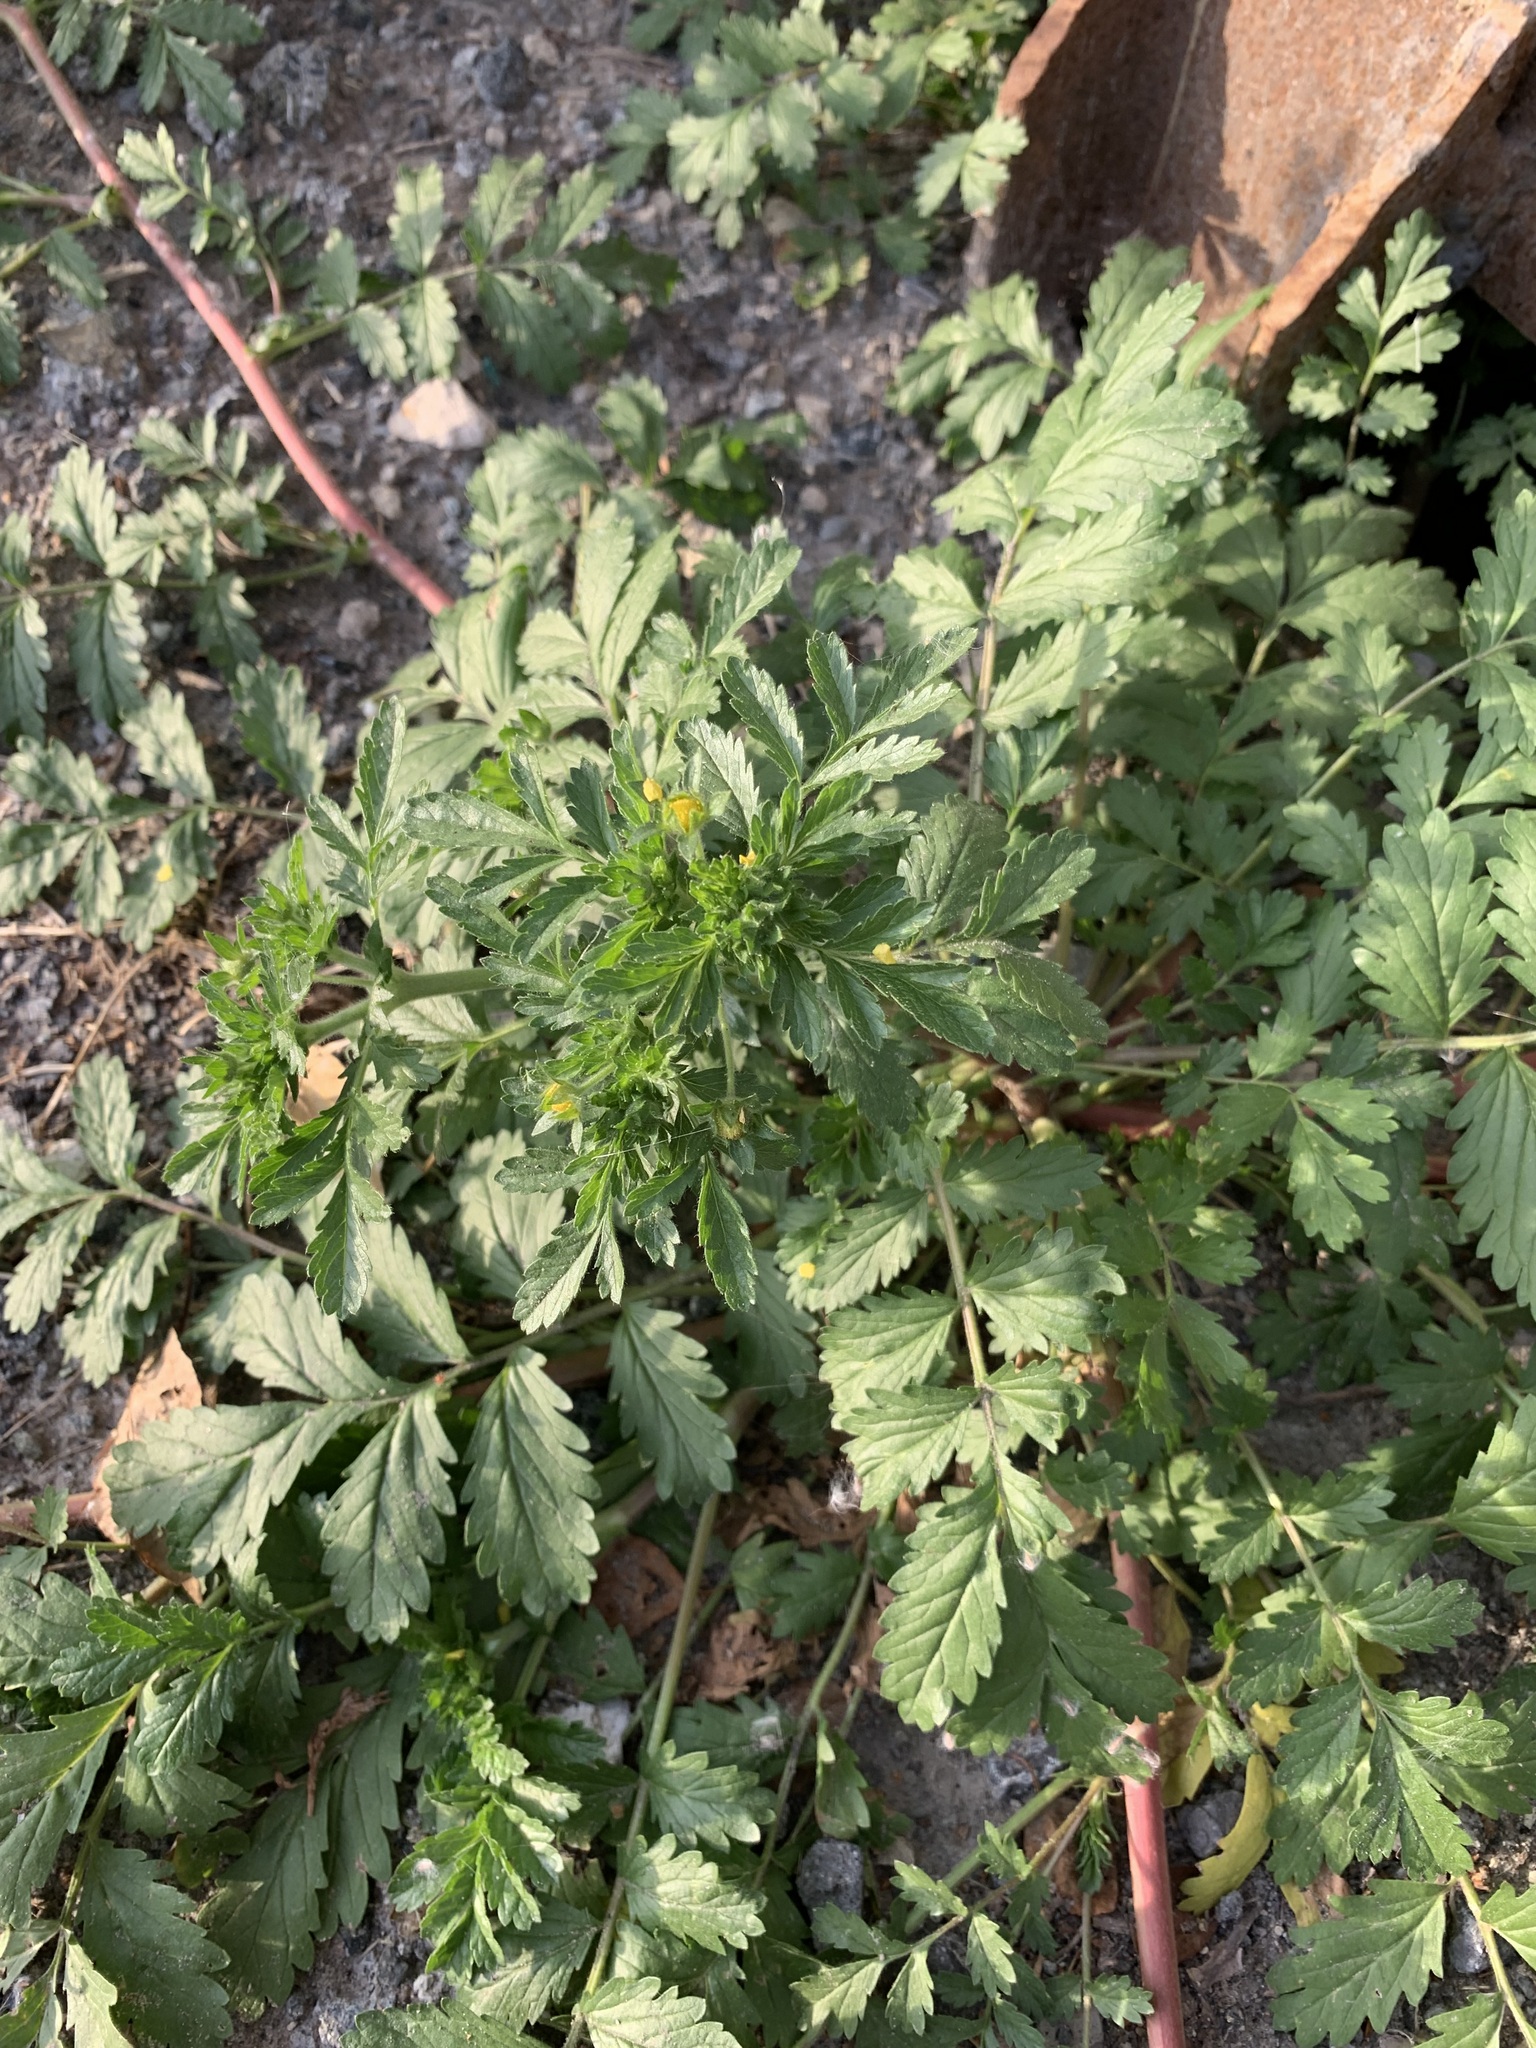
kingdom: Plantae
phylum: Tracheophyta
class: Magnoliopsida
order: Rosales
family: Rosaceae
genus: Potentilla
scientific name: Potentilla supina
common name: Prostrate cinquefoil
